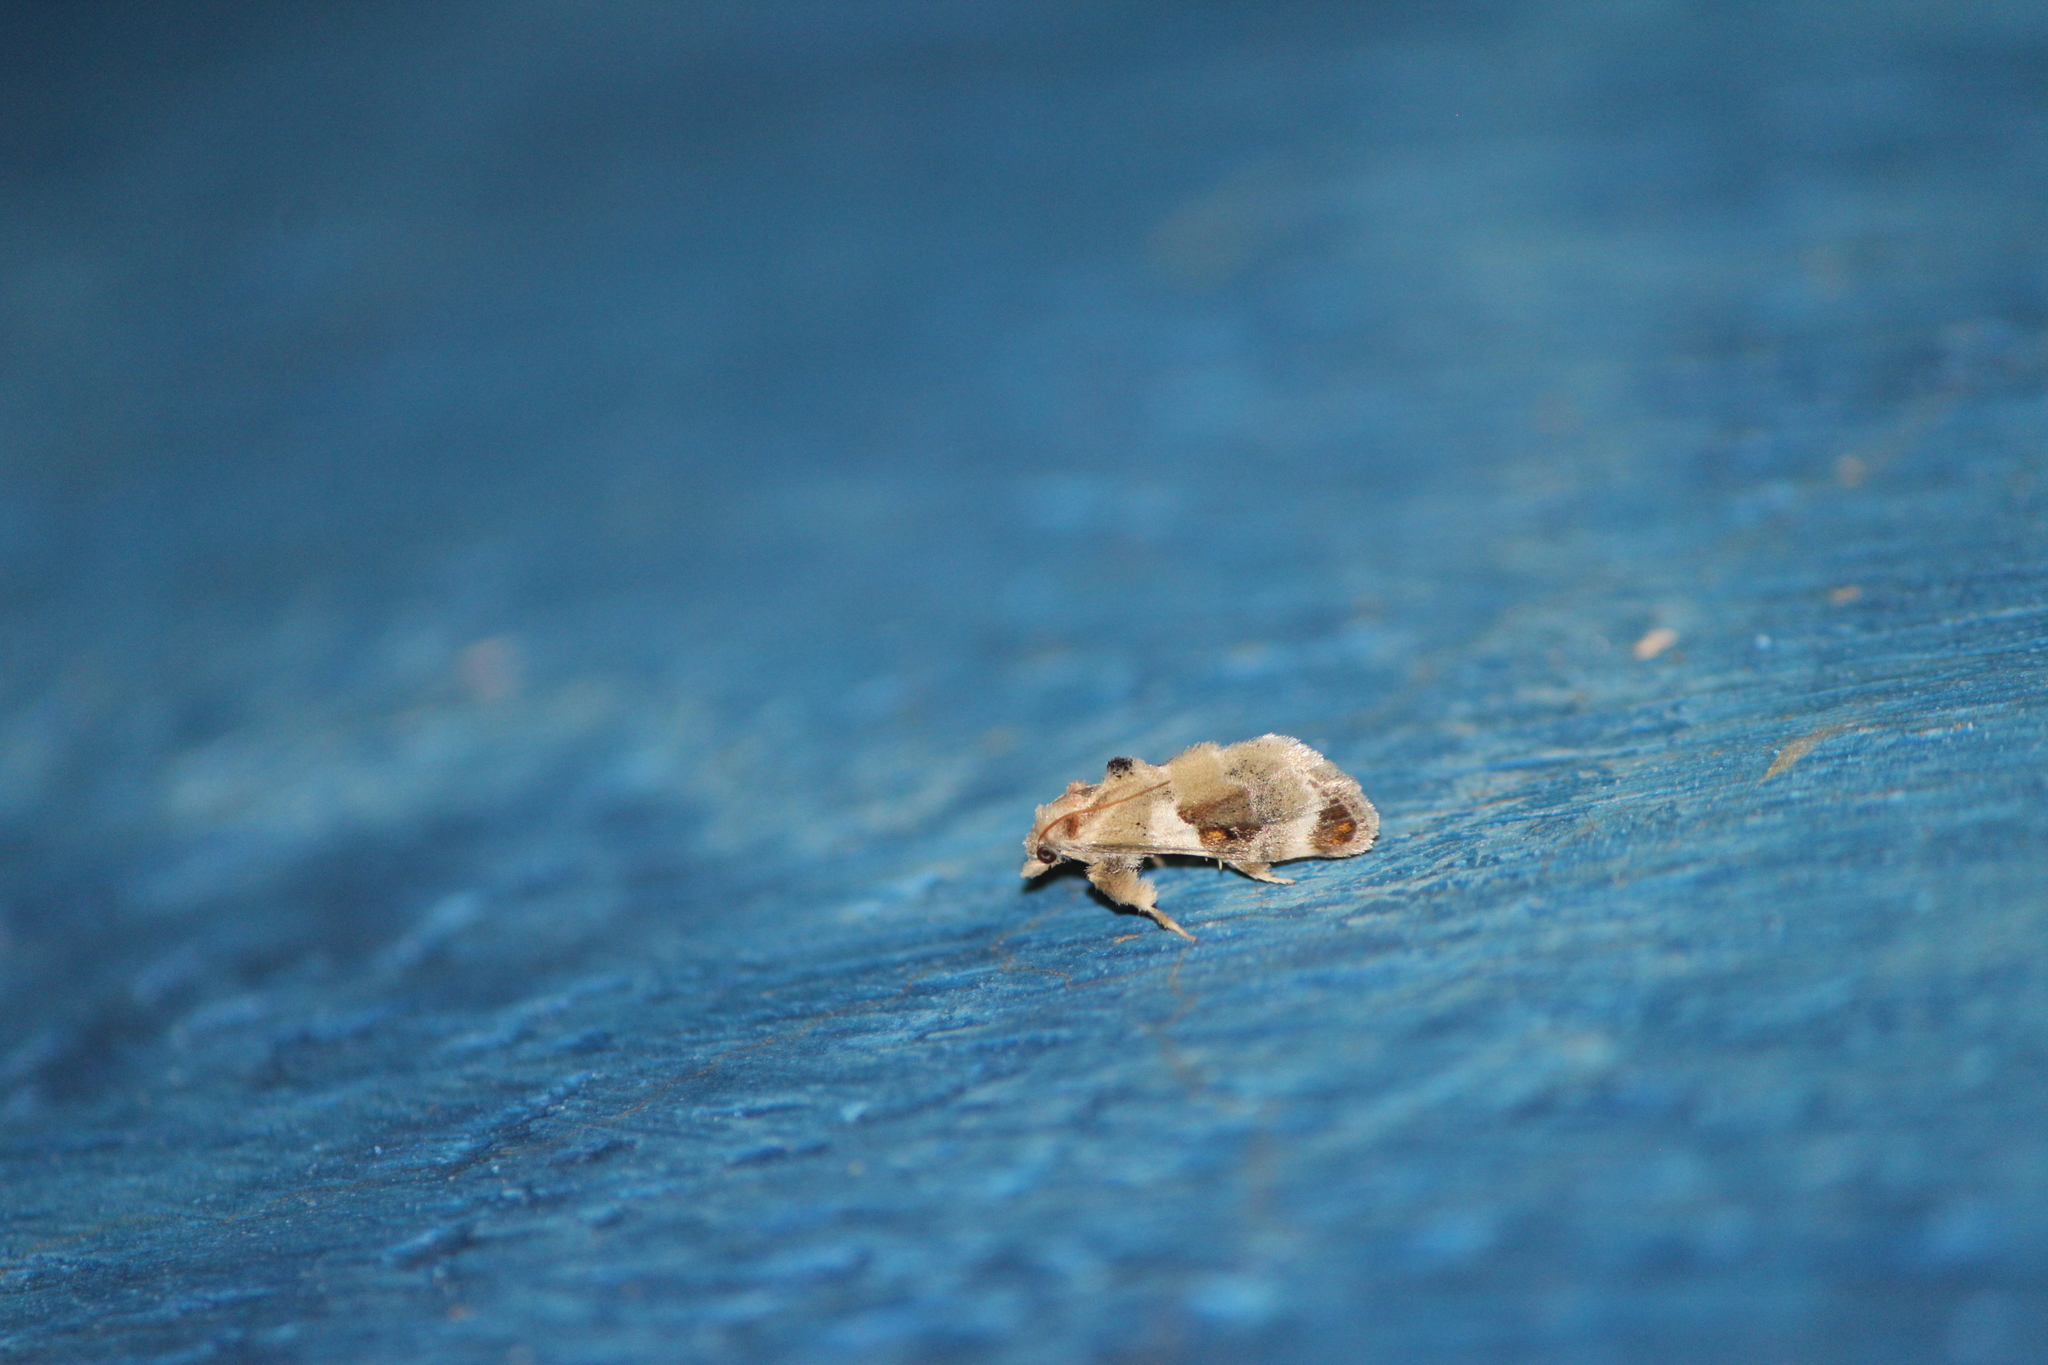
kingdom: Animalia
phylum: Arthropoda
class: Insecta
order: Lepidoptera
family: Pyralidae
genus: Cromarcha
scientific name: Cromarcha
